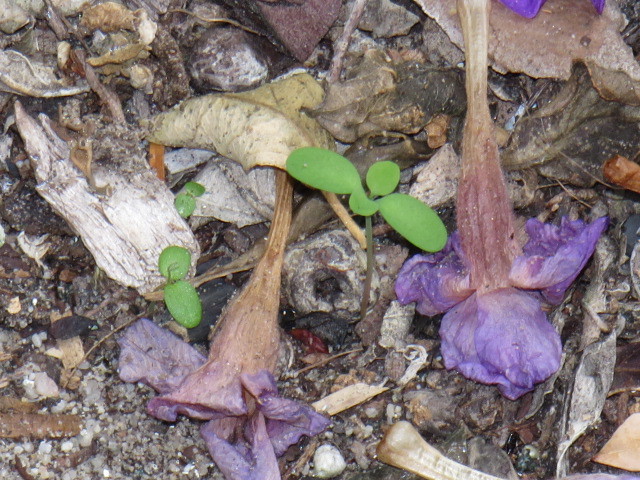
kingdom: Plantae
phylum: Tracheophyta
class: Magnoliopsida
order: Malpighiales
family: Euphorbiaceae
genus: Euphorbia
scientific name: Euphorbia peplus
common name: Petty spurge
